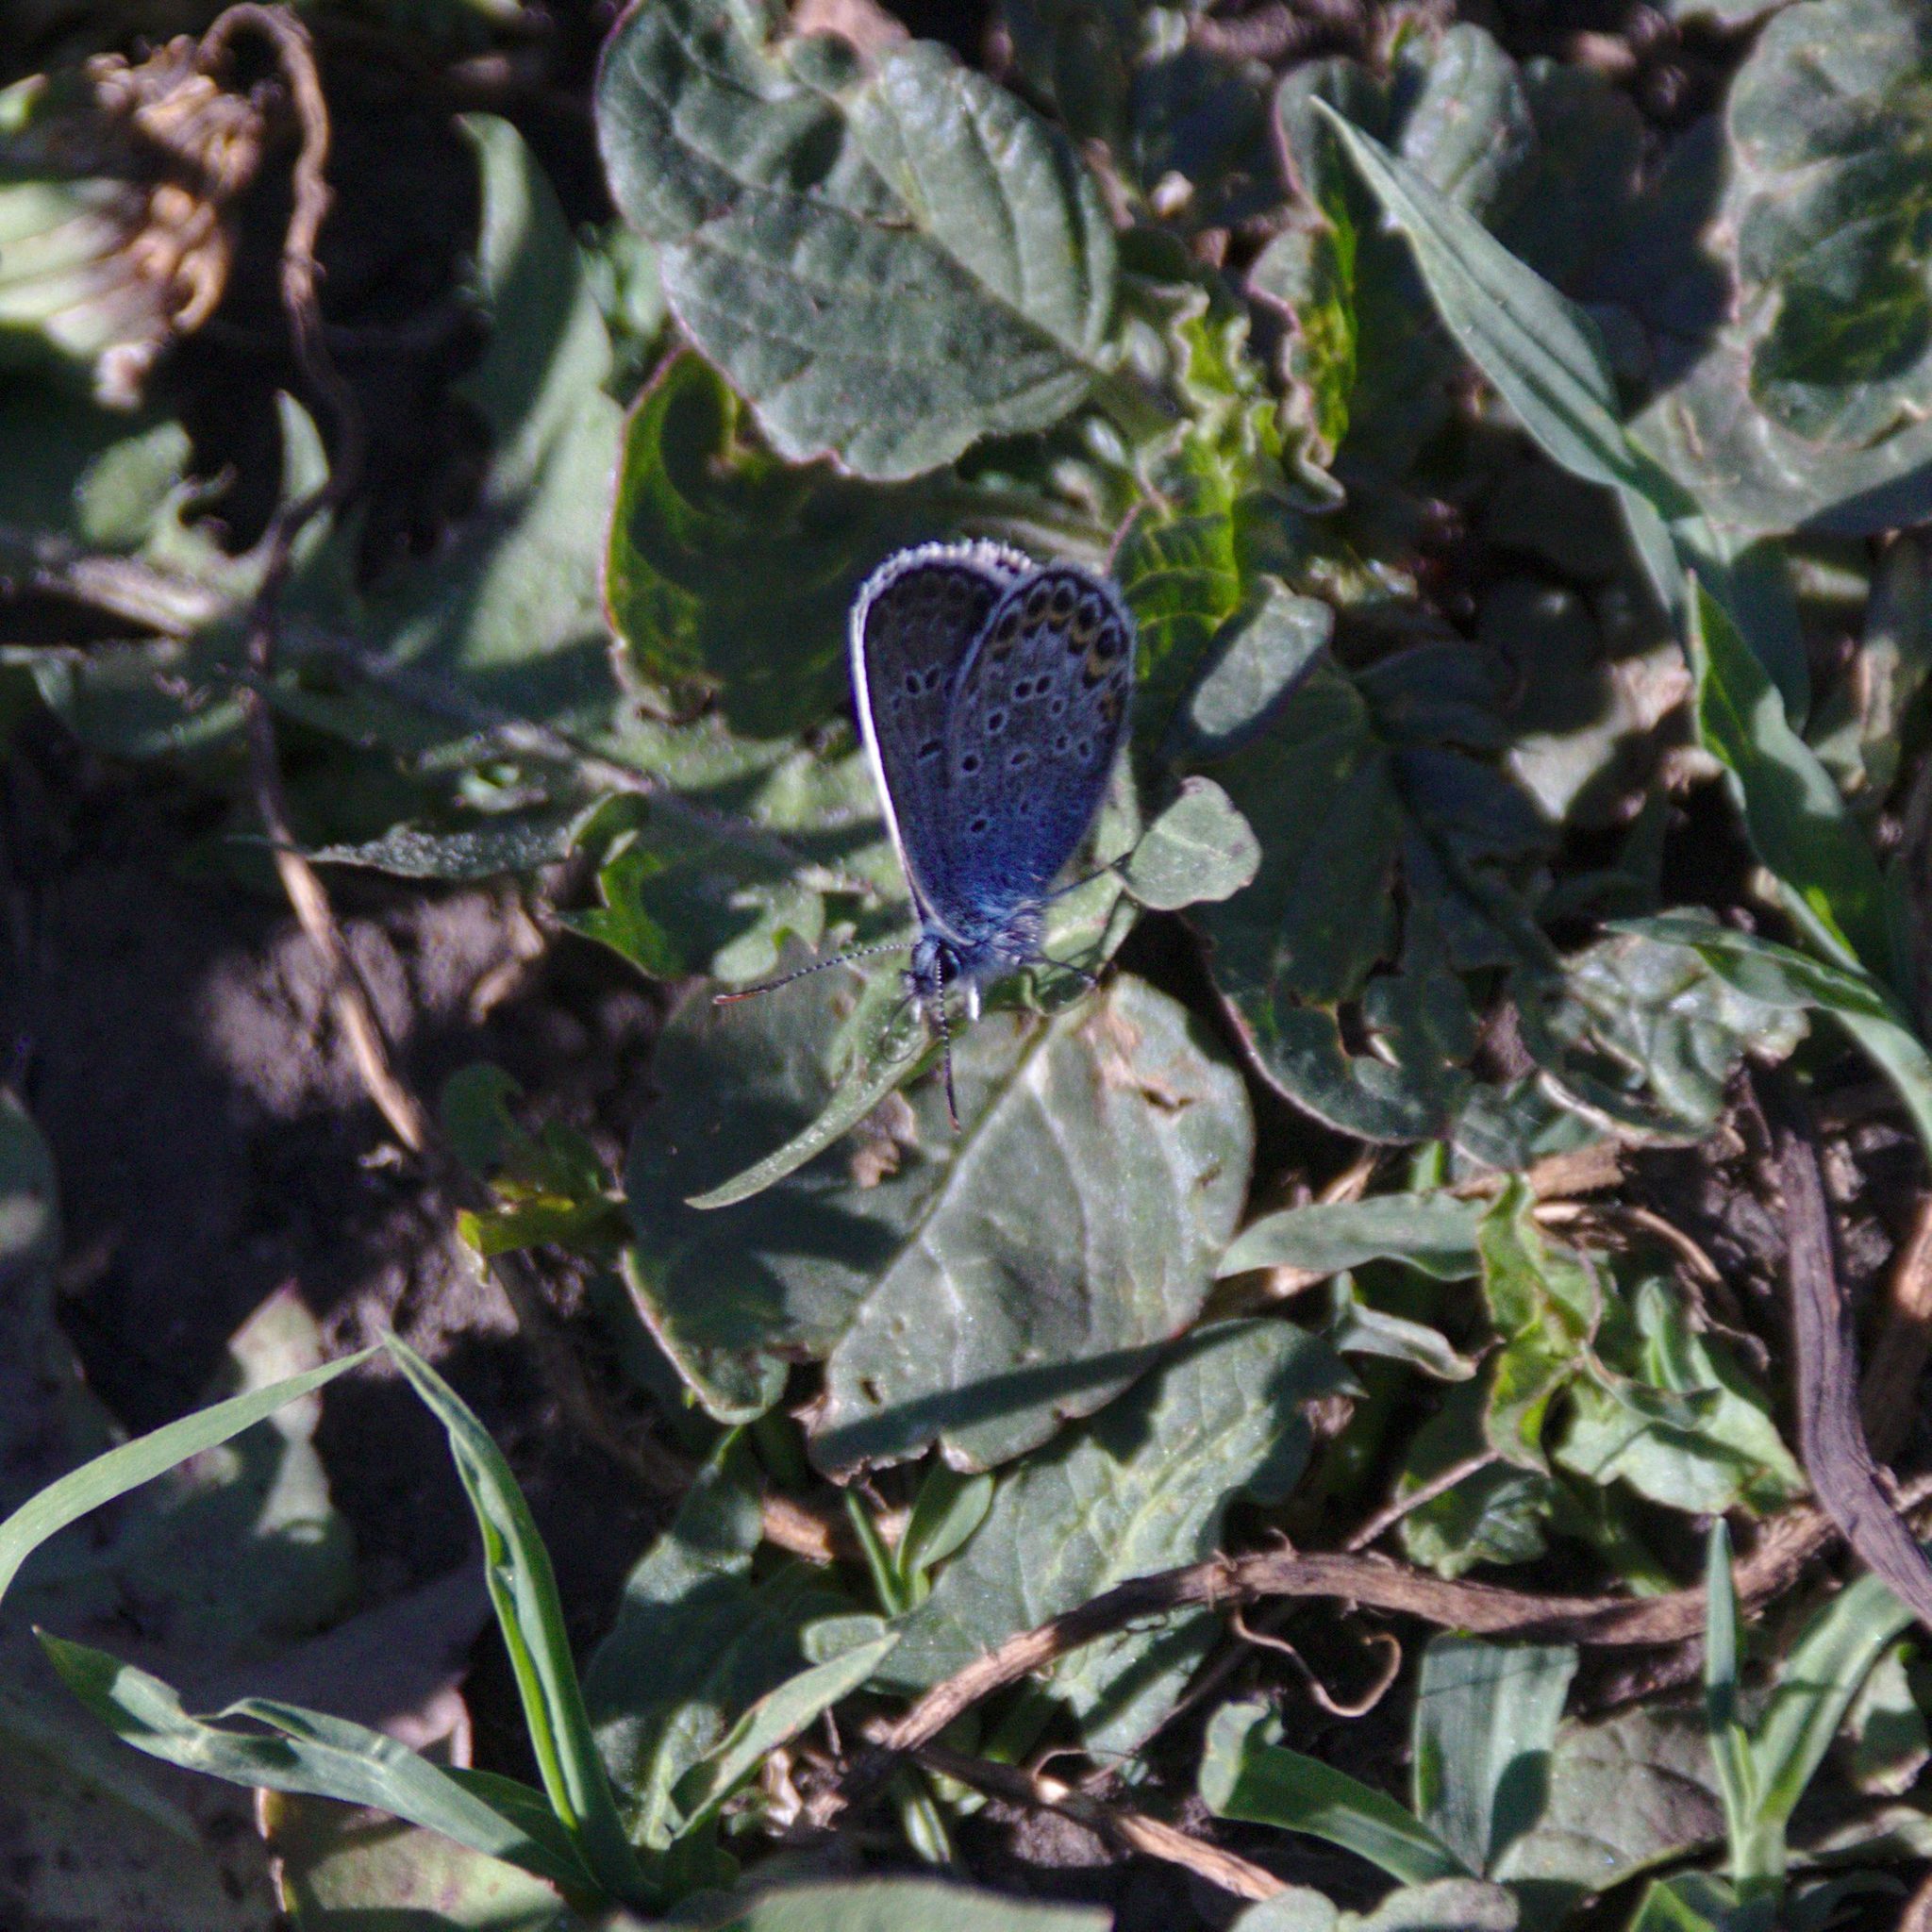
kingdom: Animalia
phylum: Arthropoda
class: Insecta
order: Lepidoptera
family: Lycaenidae
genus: Plebejus
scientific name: Plebejus argus
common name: Silver-studded blue
